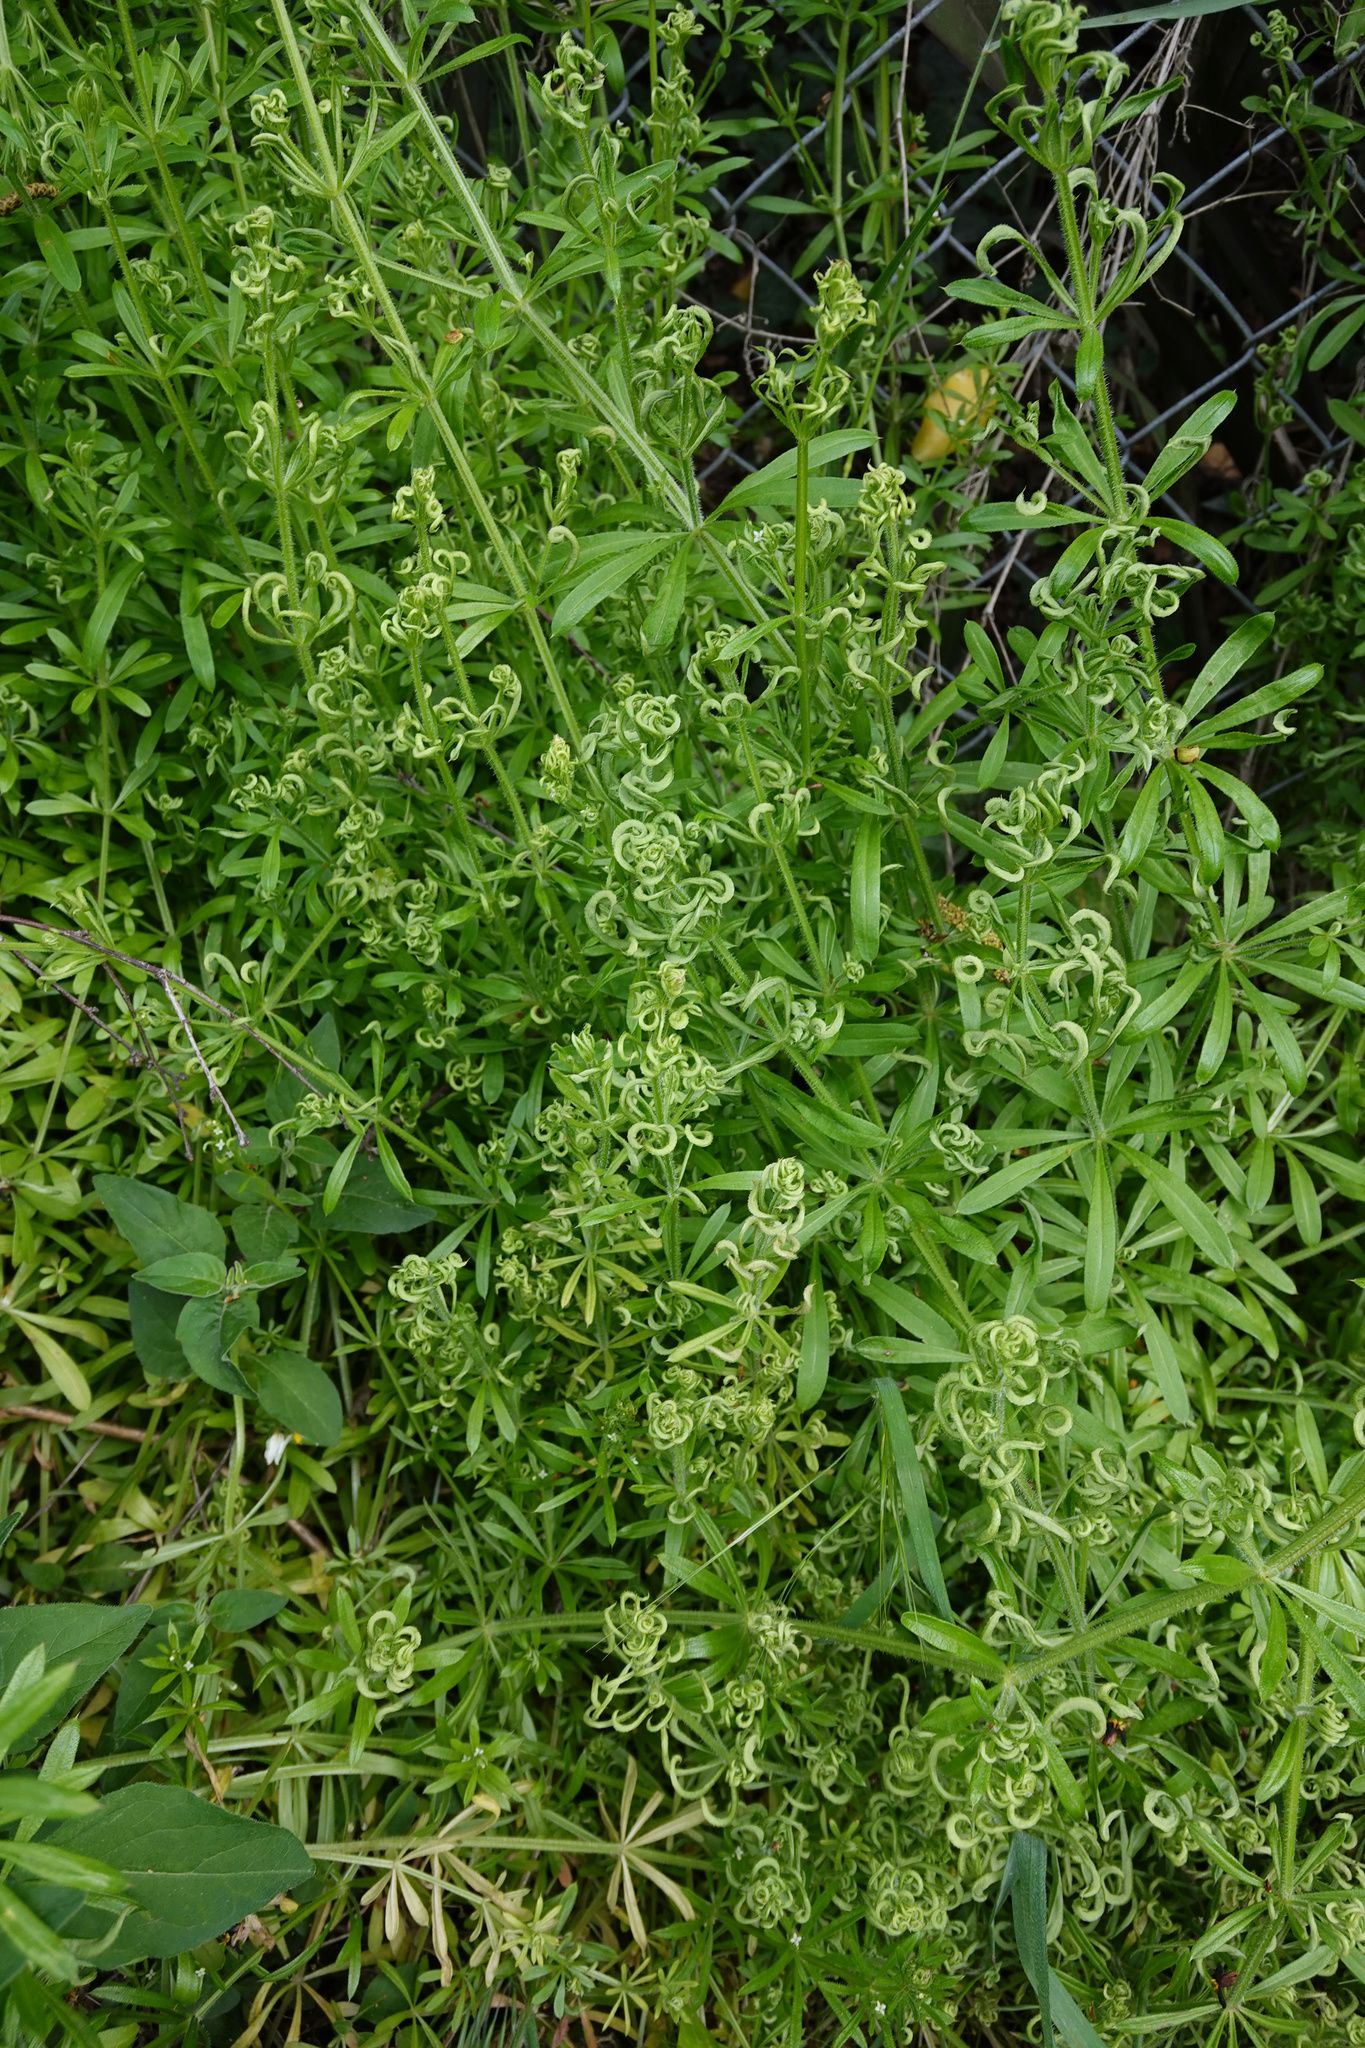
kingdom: Animalia
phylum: Arthropoda
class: Arachnida
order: Trombidiformes
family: Eriophyidae
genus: Cecidophyes
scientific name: Cecidophyes rouhollahi
